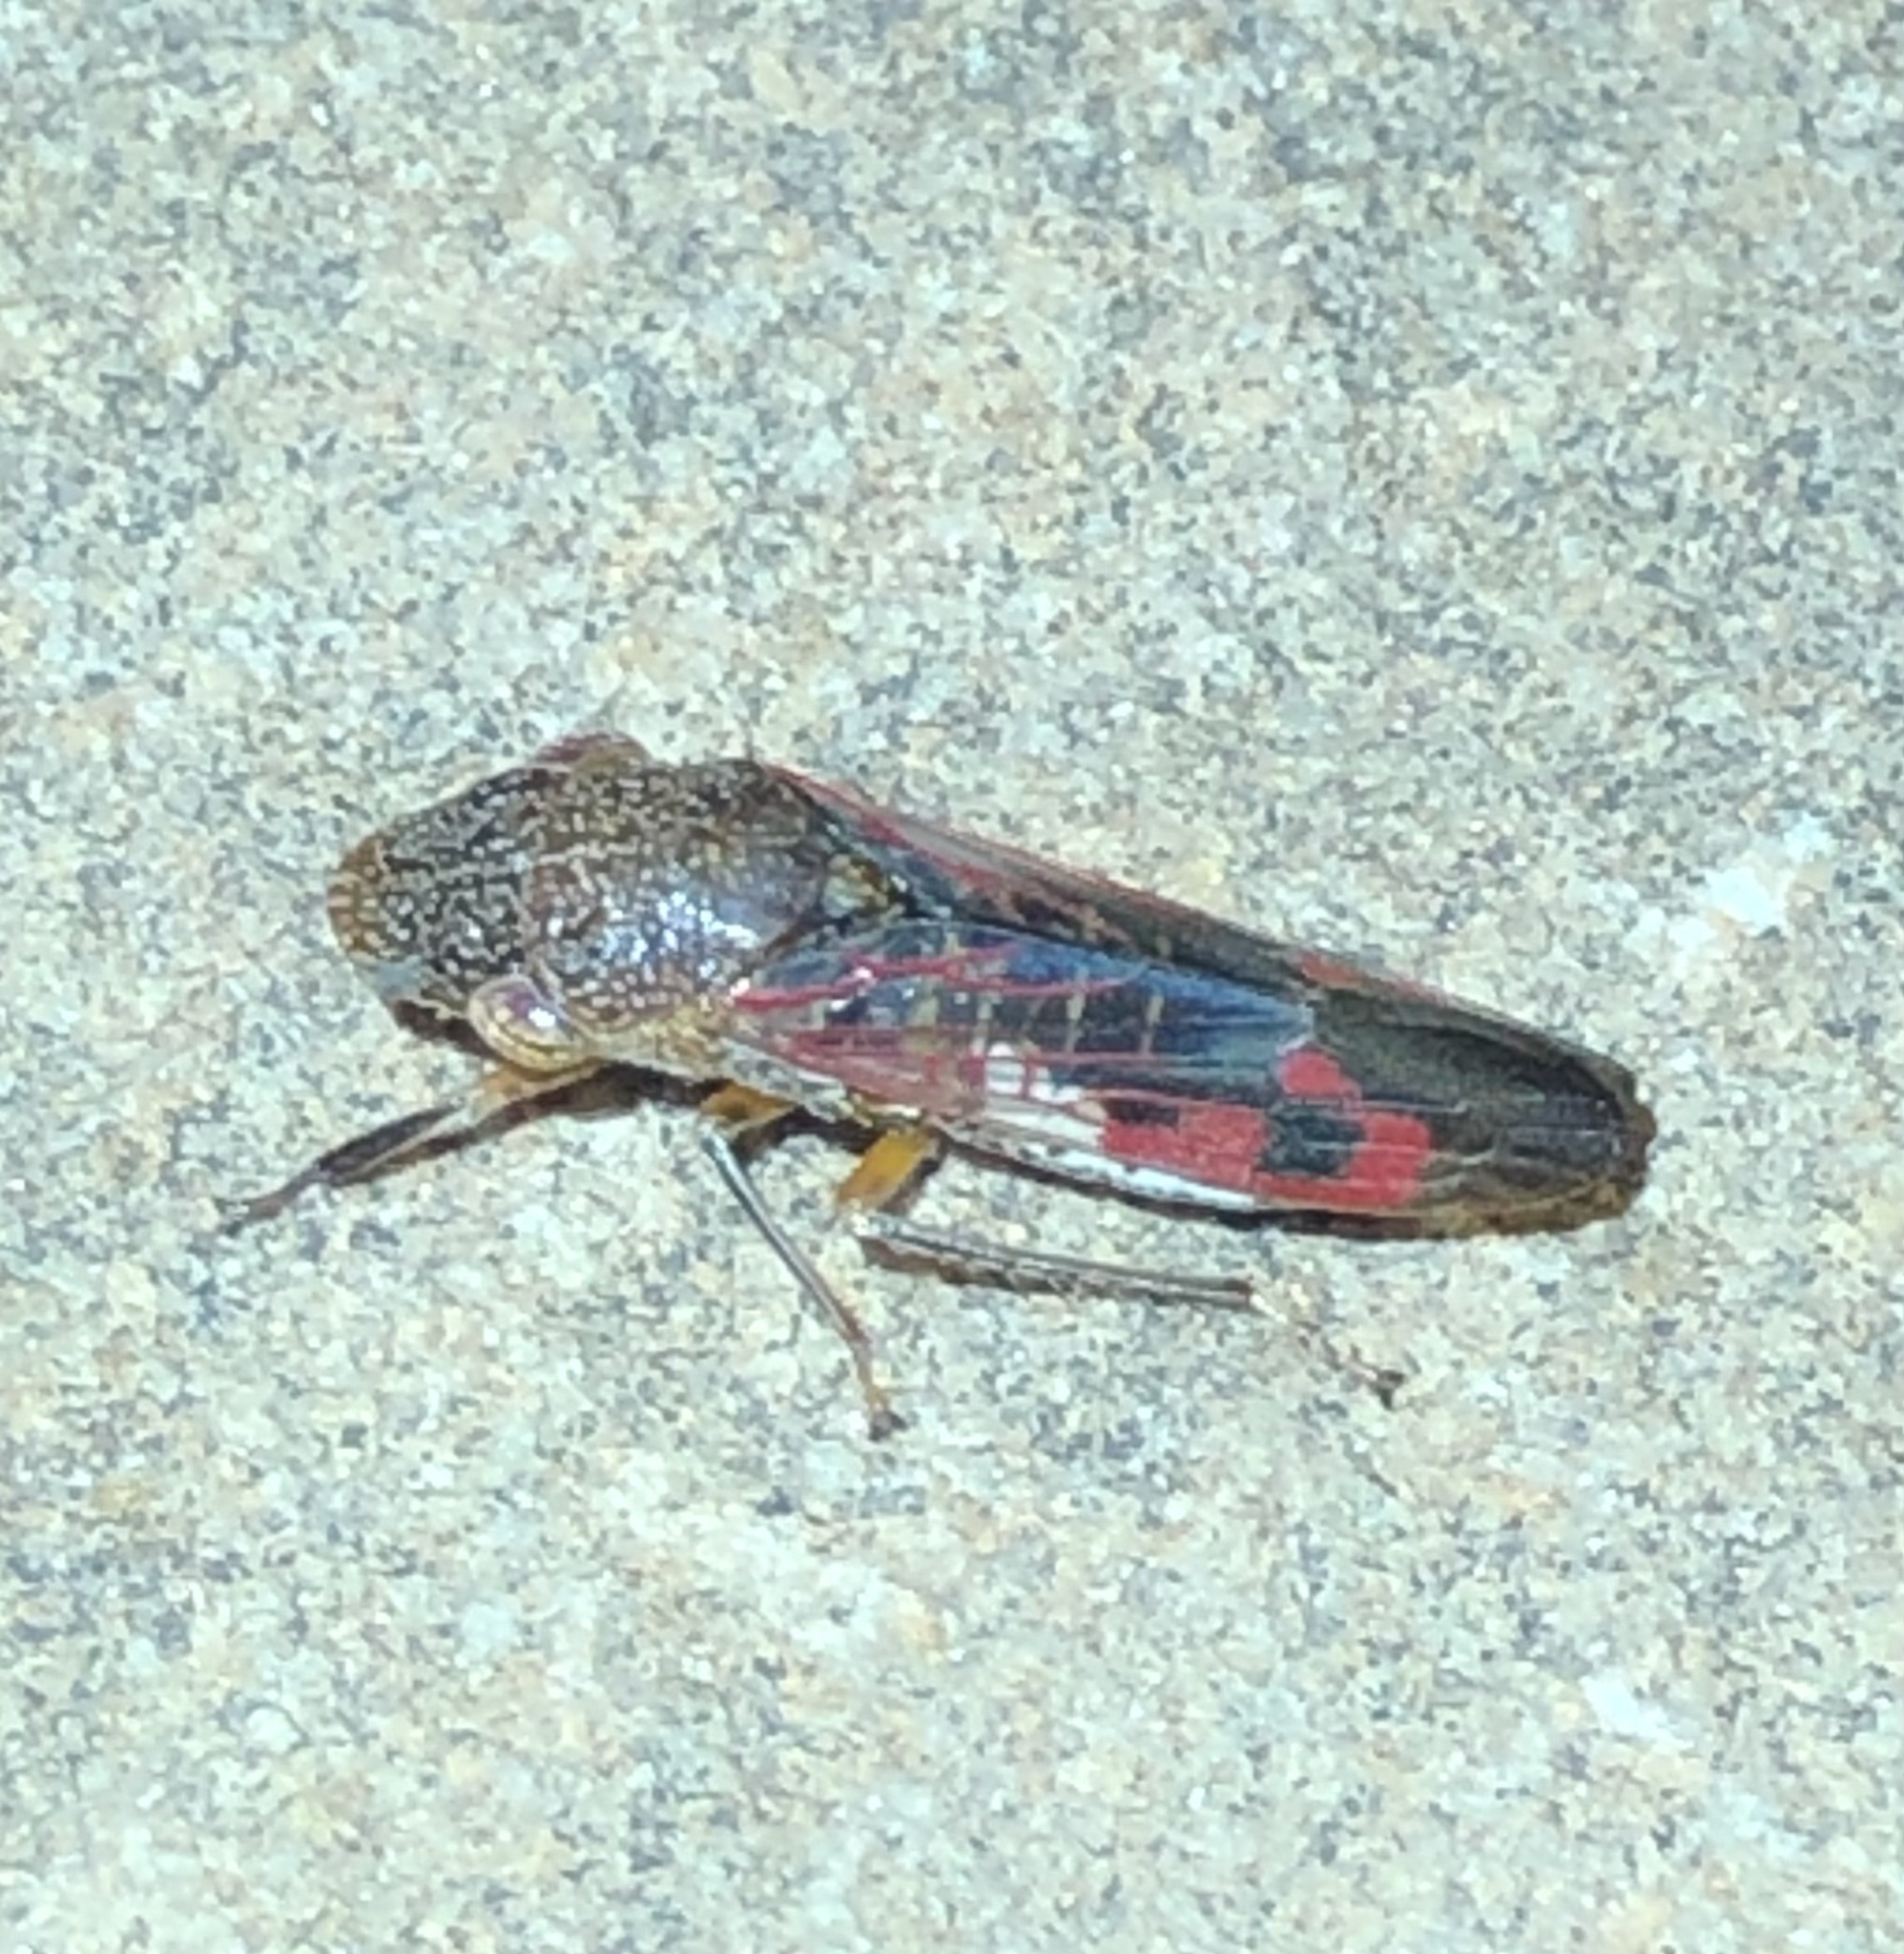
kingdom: Animalia
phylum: Arthropoda
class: Insecta
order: Hemiptera
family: Cicadellidae
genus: Homalodisca
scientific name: Homalodisca vitripennis
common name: Glassy-winged sharpshooter
